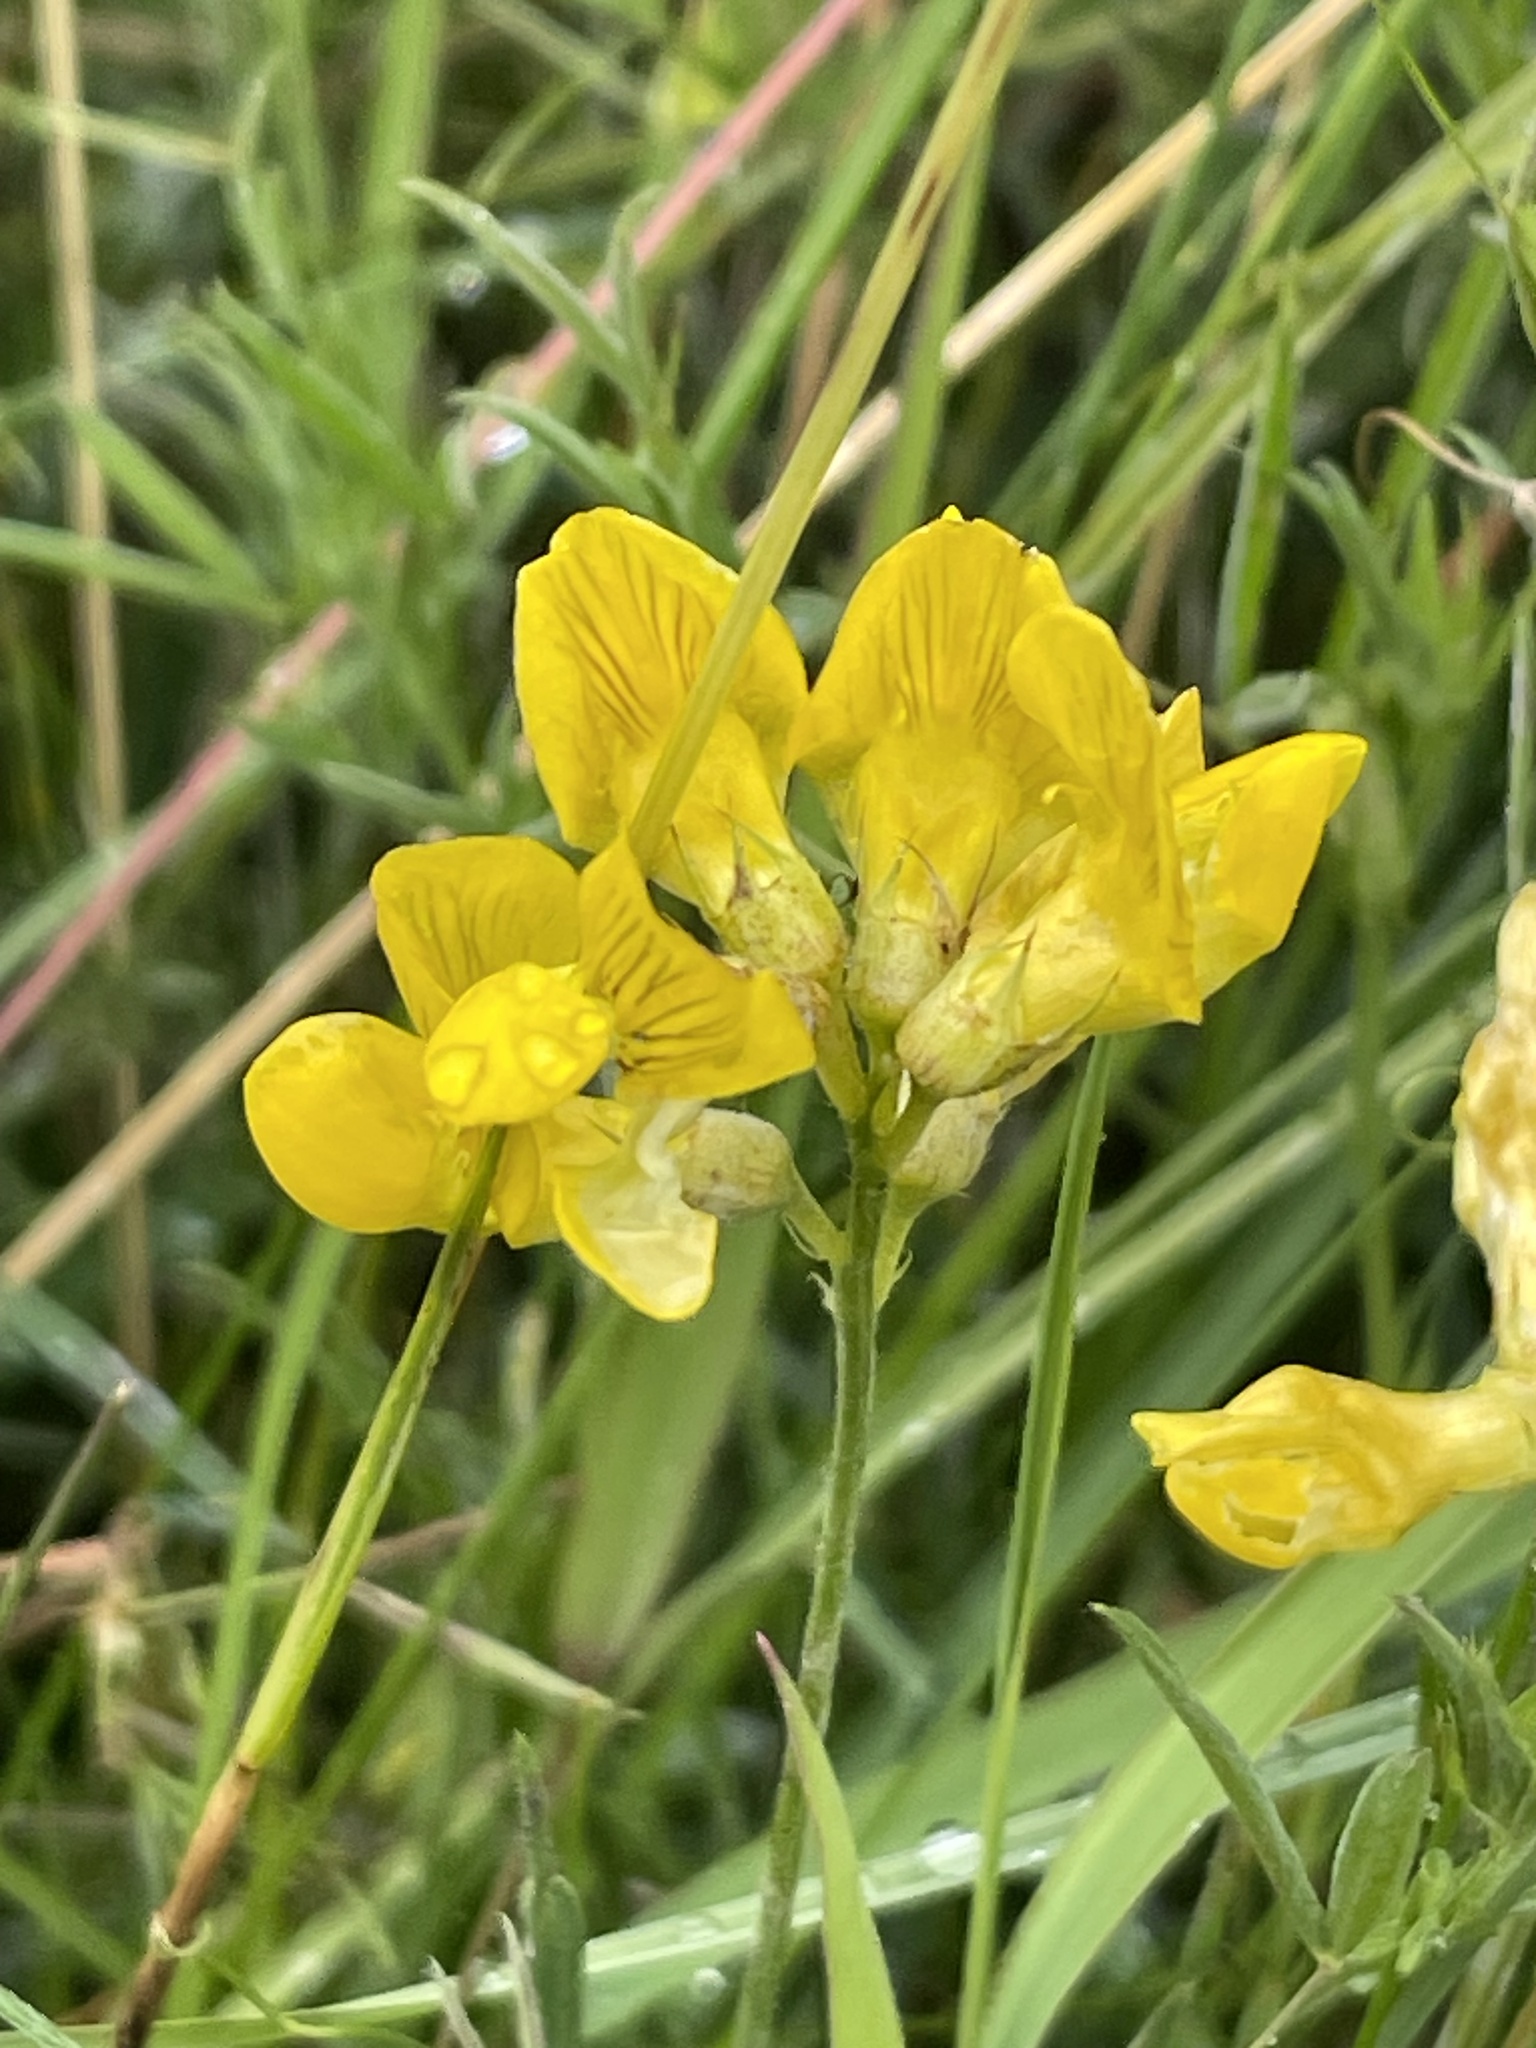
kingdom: Plantae
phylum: Tracheophyta
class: Magnoliopsida
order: Fabales
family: Fabaceae
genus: Lathyrus
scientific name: Lathyrus pratensis
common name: Meadow vetchling
